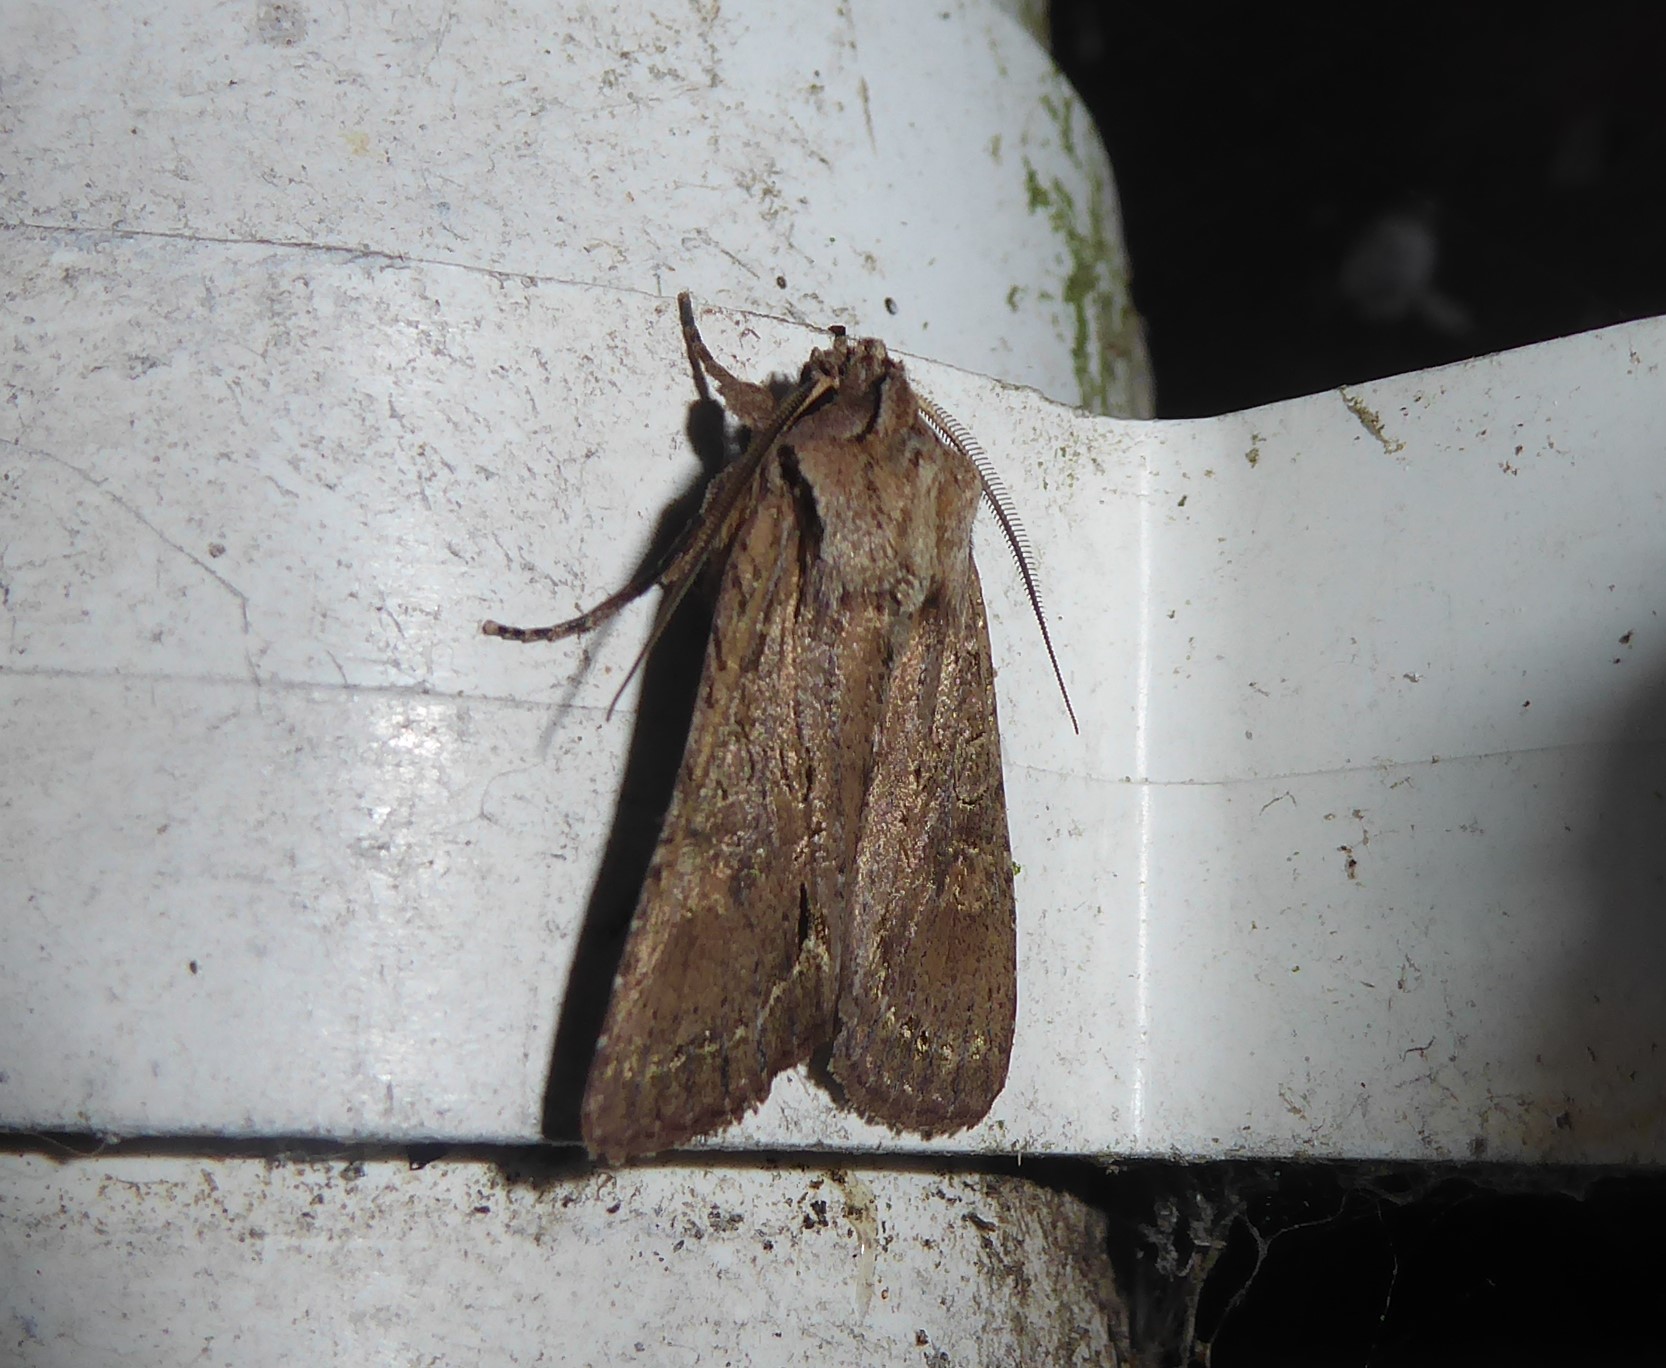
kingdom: Animalia
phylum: Arthropoda
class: Insecta
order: Lepidoptera
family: Noctuidae
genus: Ichneutica
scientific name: Ichneutica
